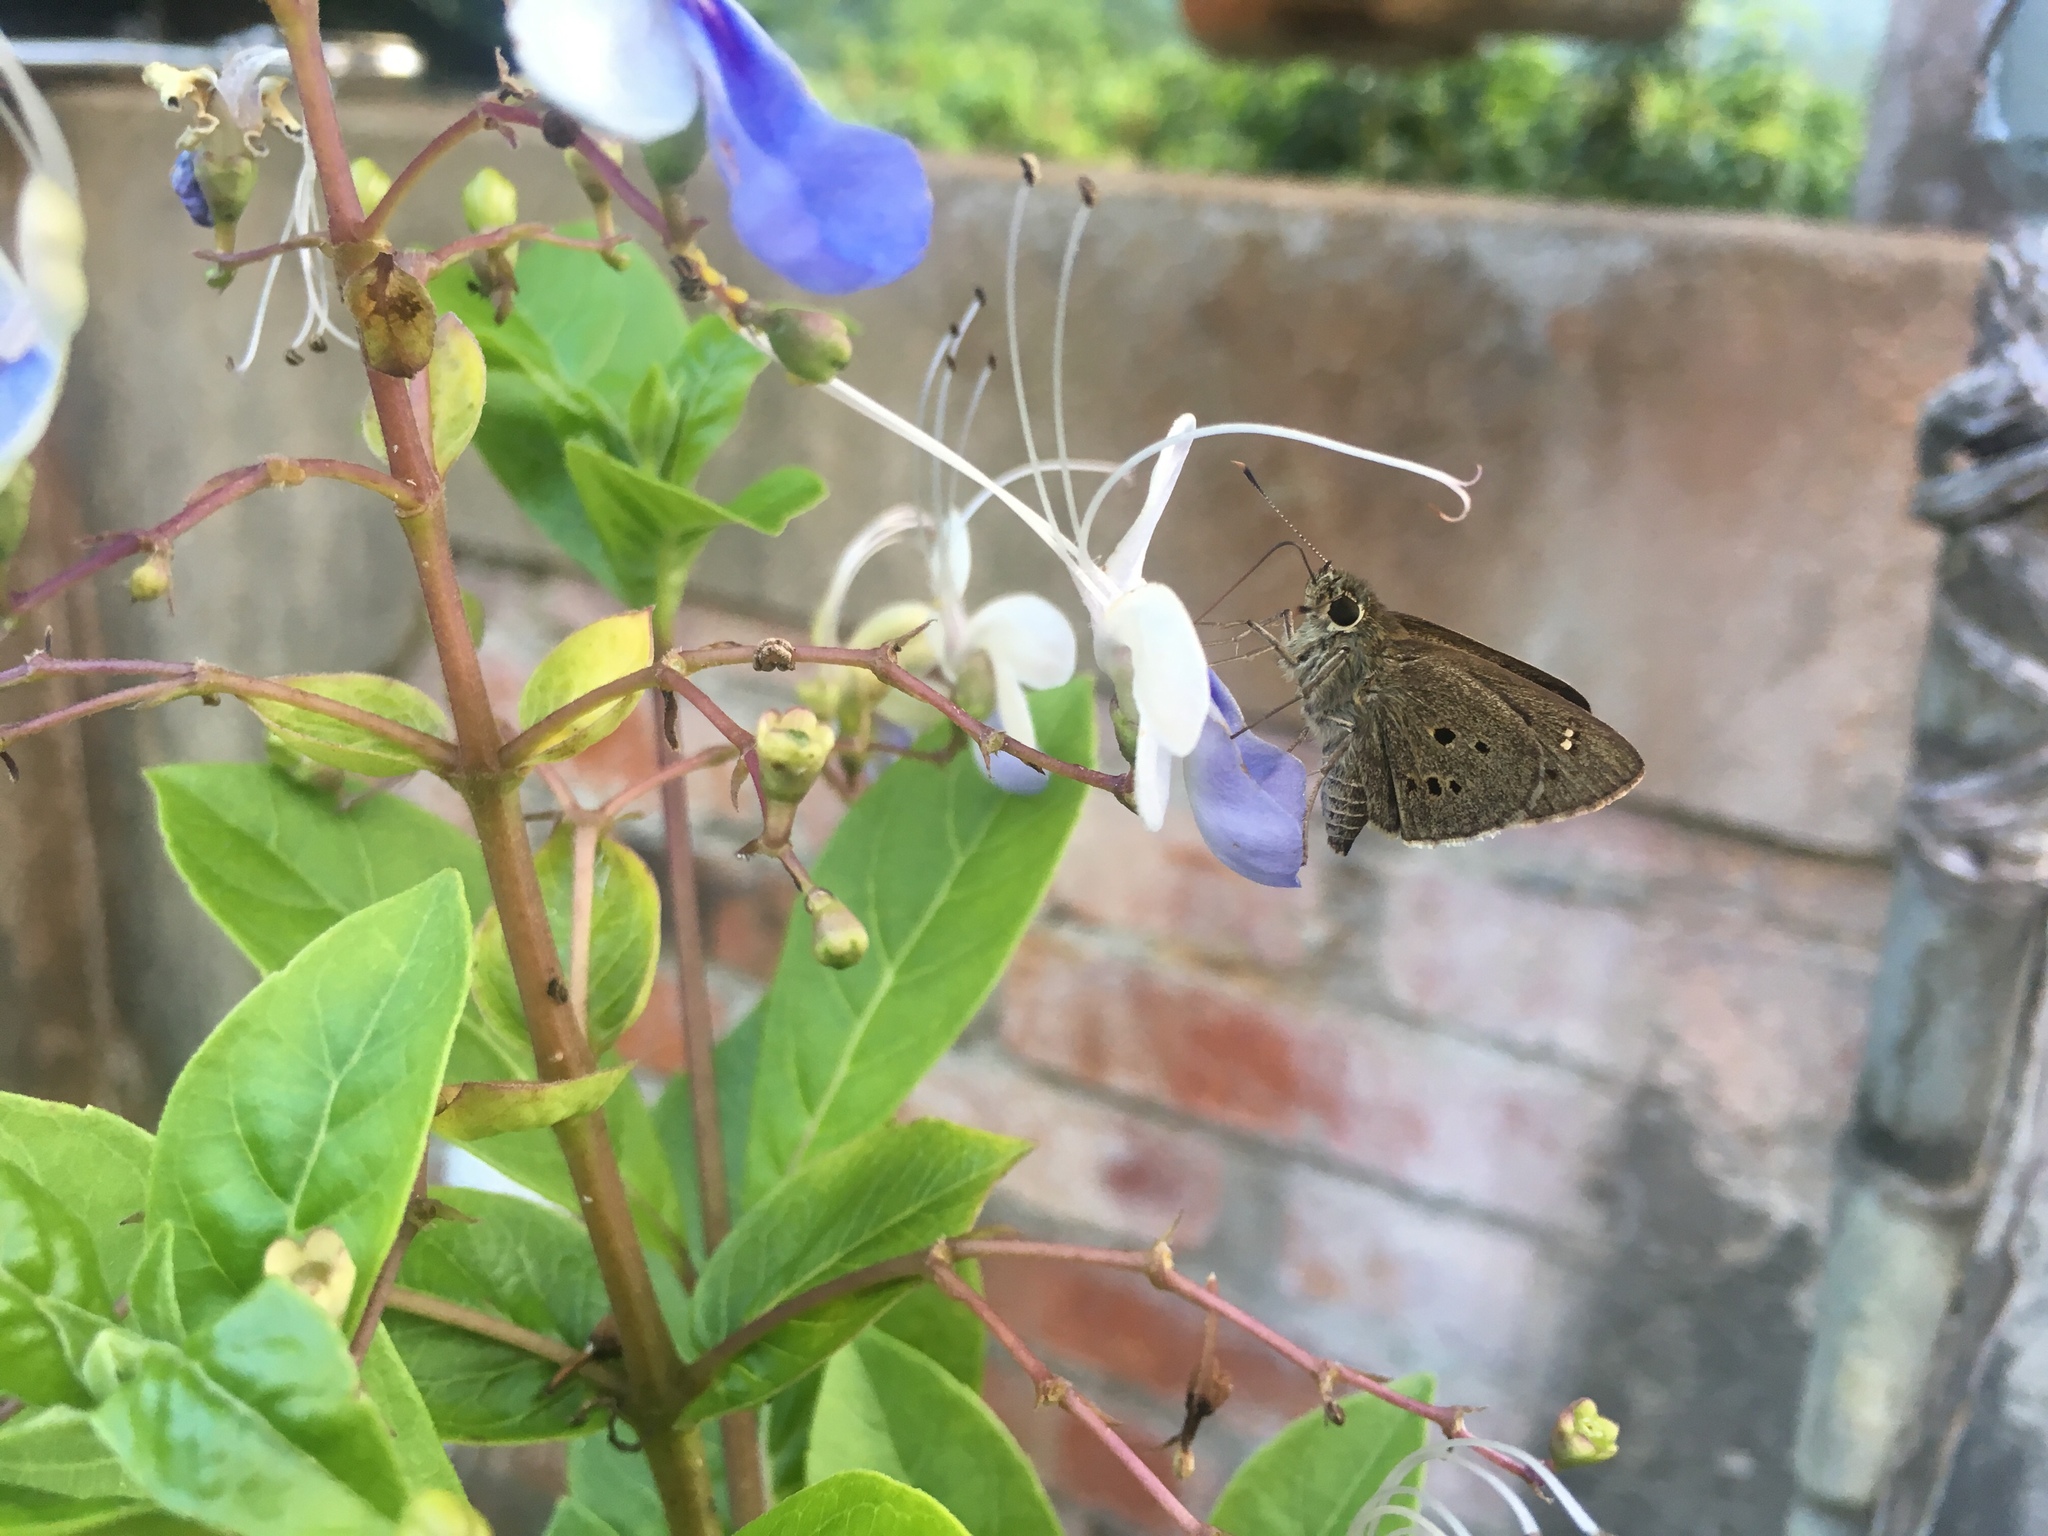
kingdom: Animalia
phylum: Arthropoda
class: Insecta
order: Lepidoptera
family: Hesperiidae
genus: Suastus
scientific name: Suastus gremius
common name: Indian palm bob
